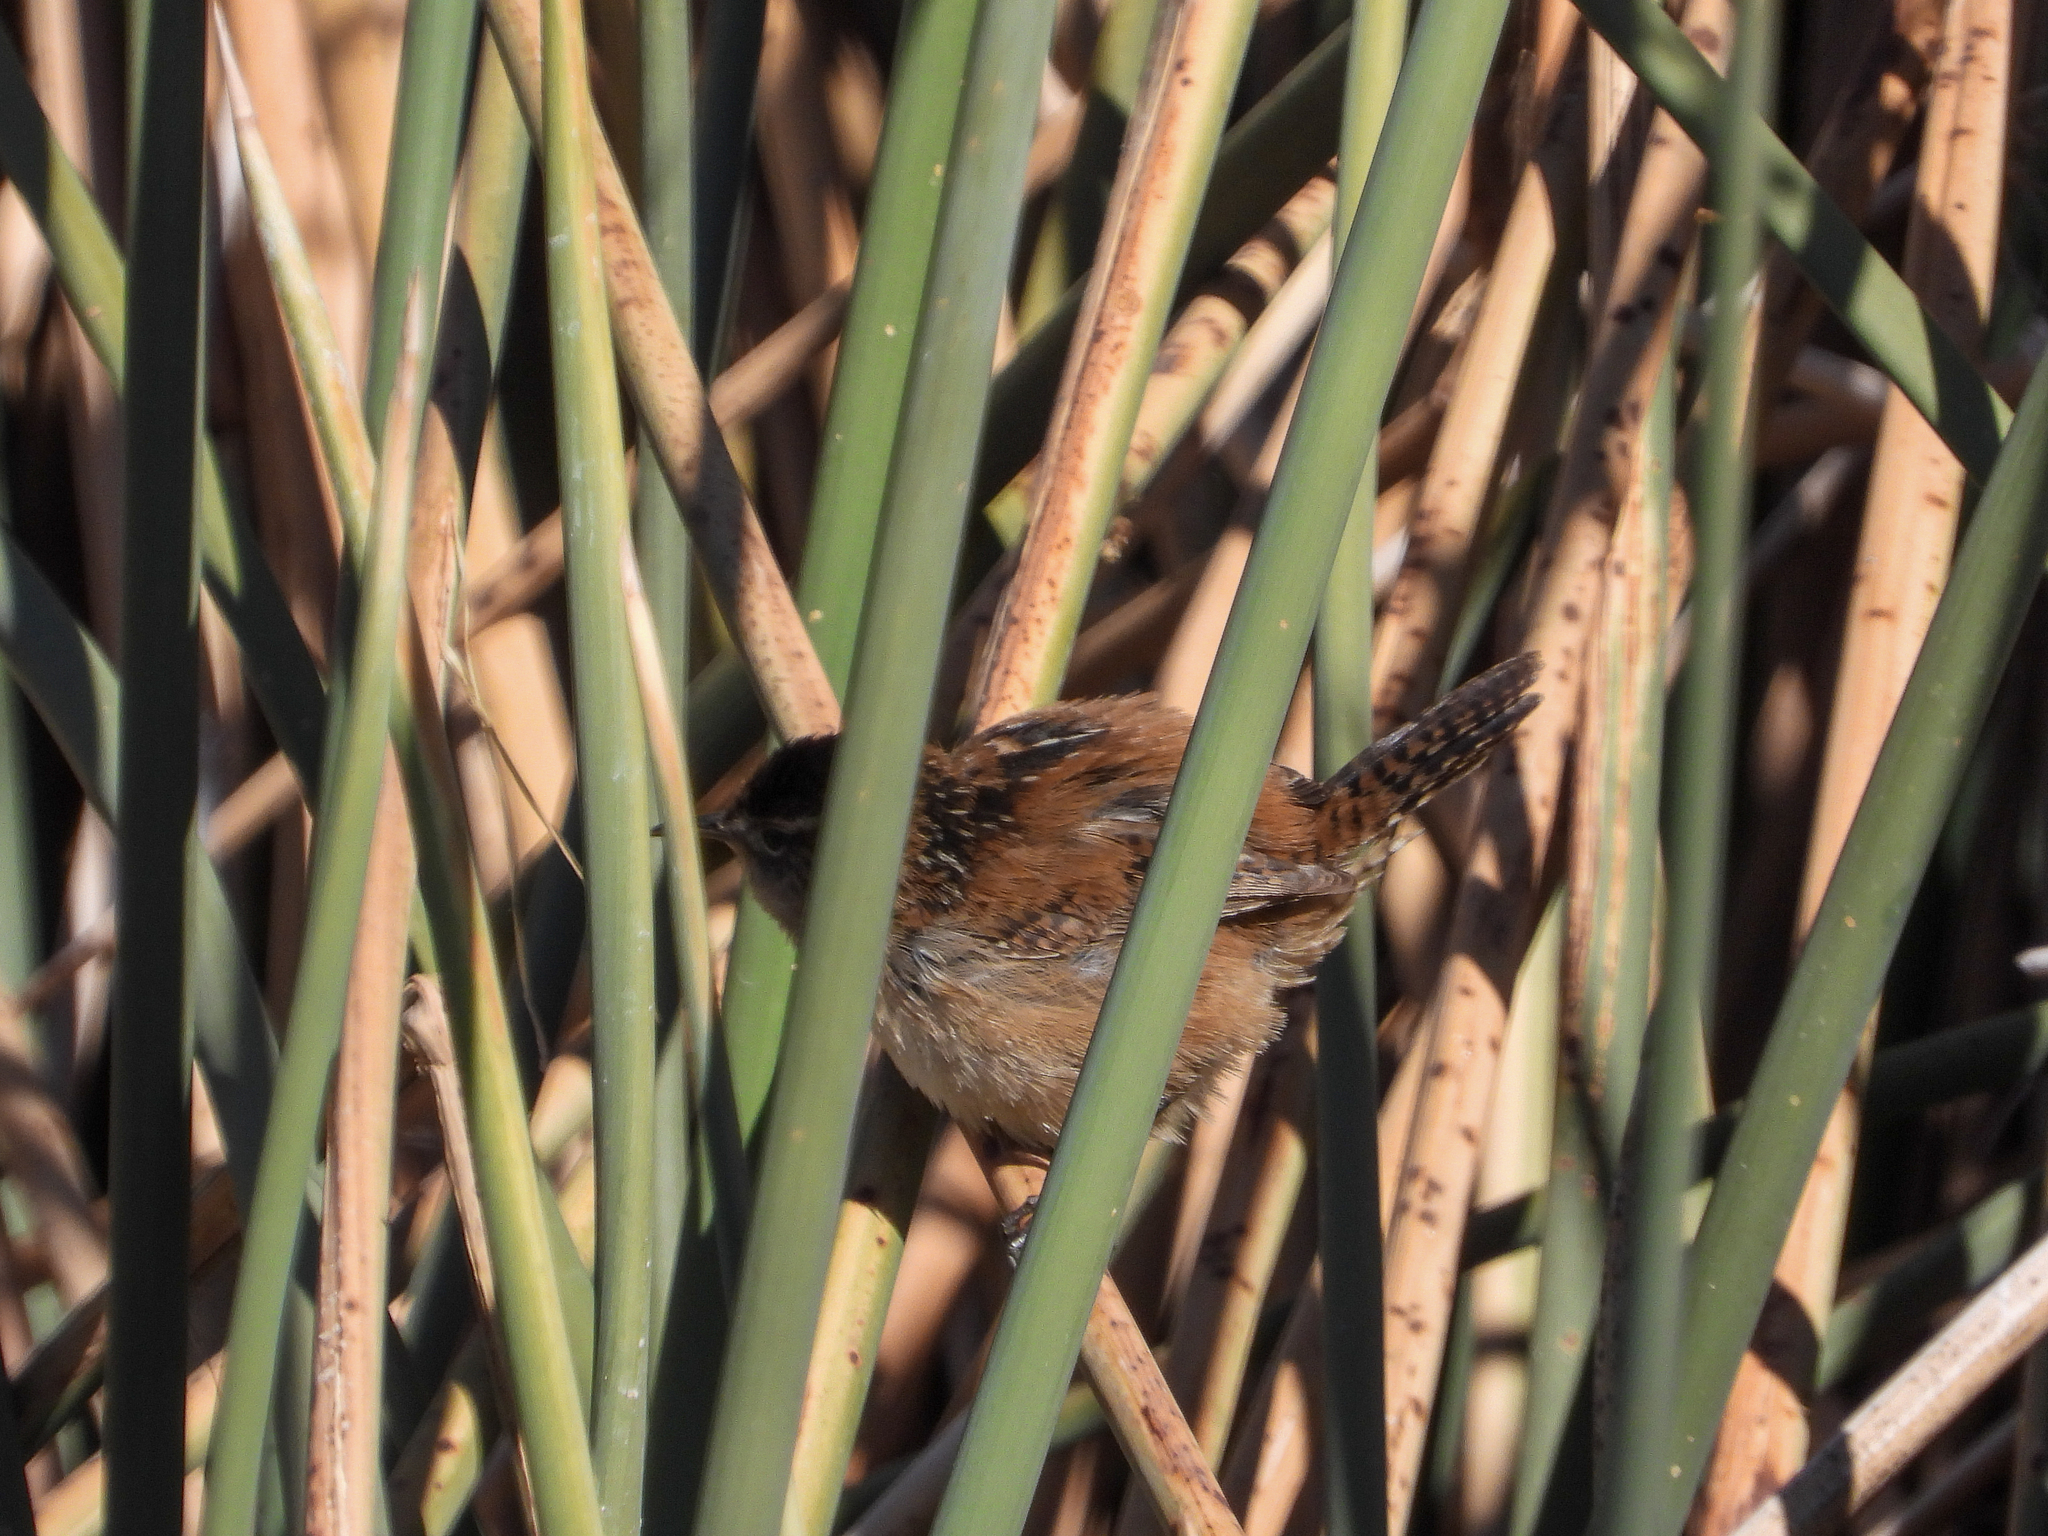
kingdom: Animalia
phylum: Chordata
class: Aves
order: Passeriformes
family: Troglodytidae
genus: Cistothorus
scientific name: Cistothorus palustris
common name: Marsh wren
